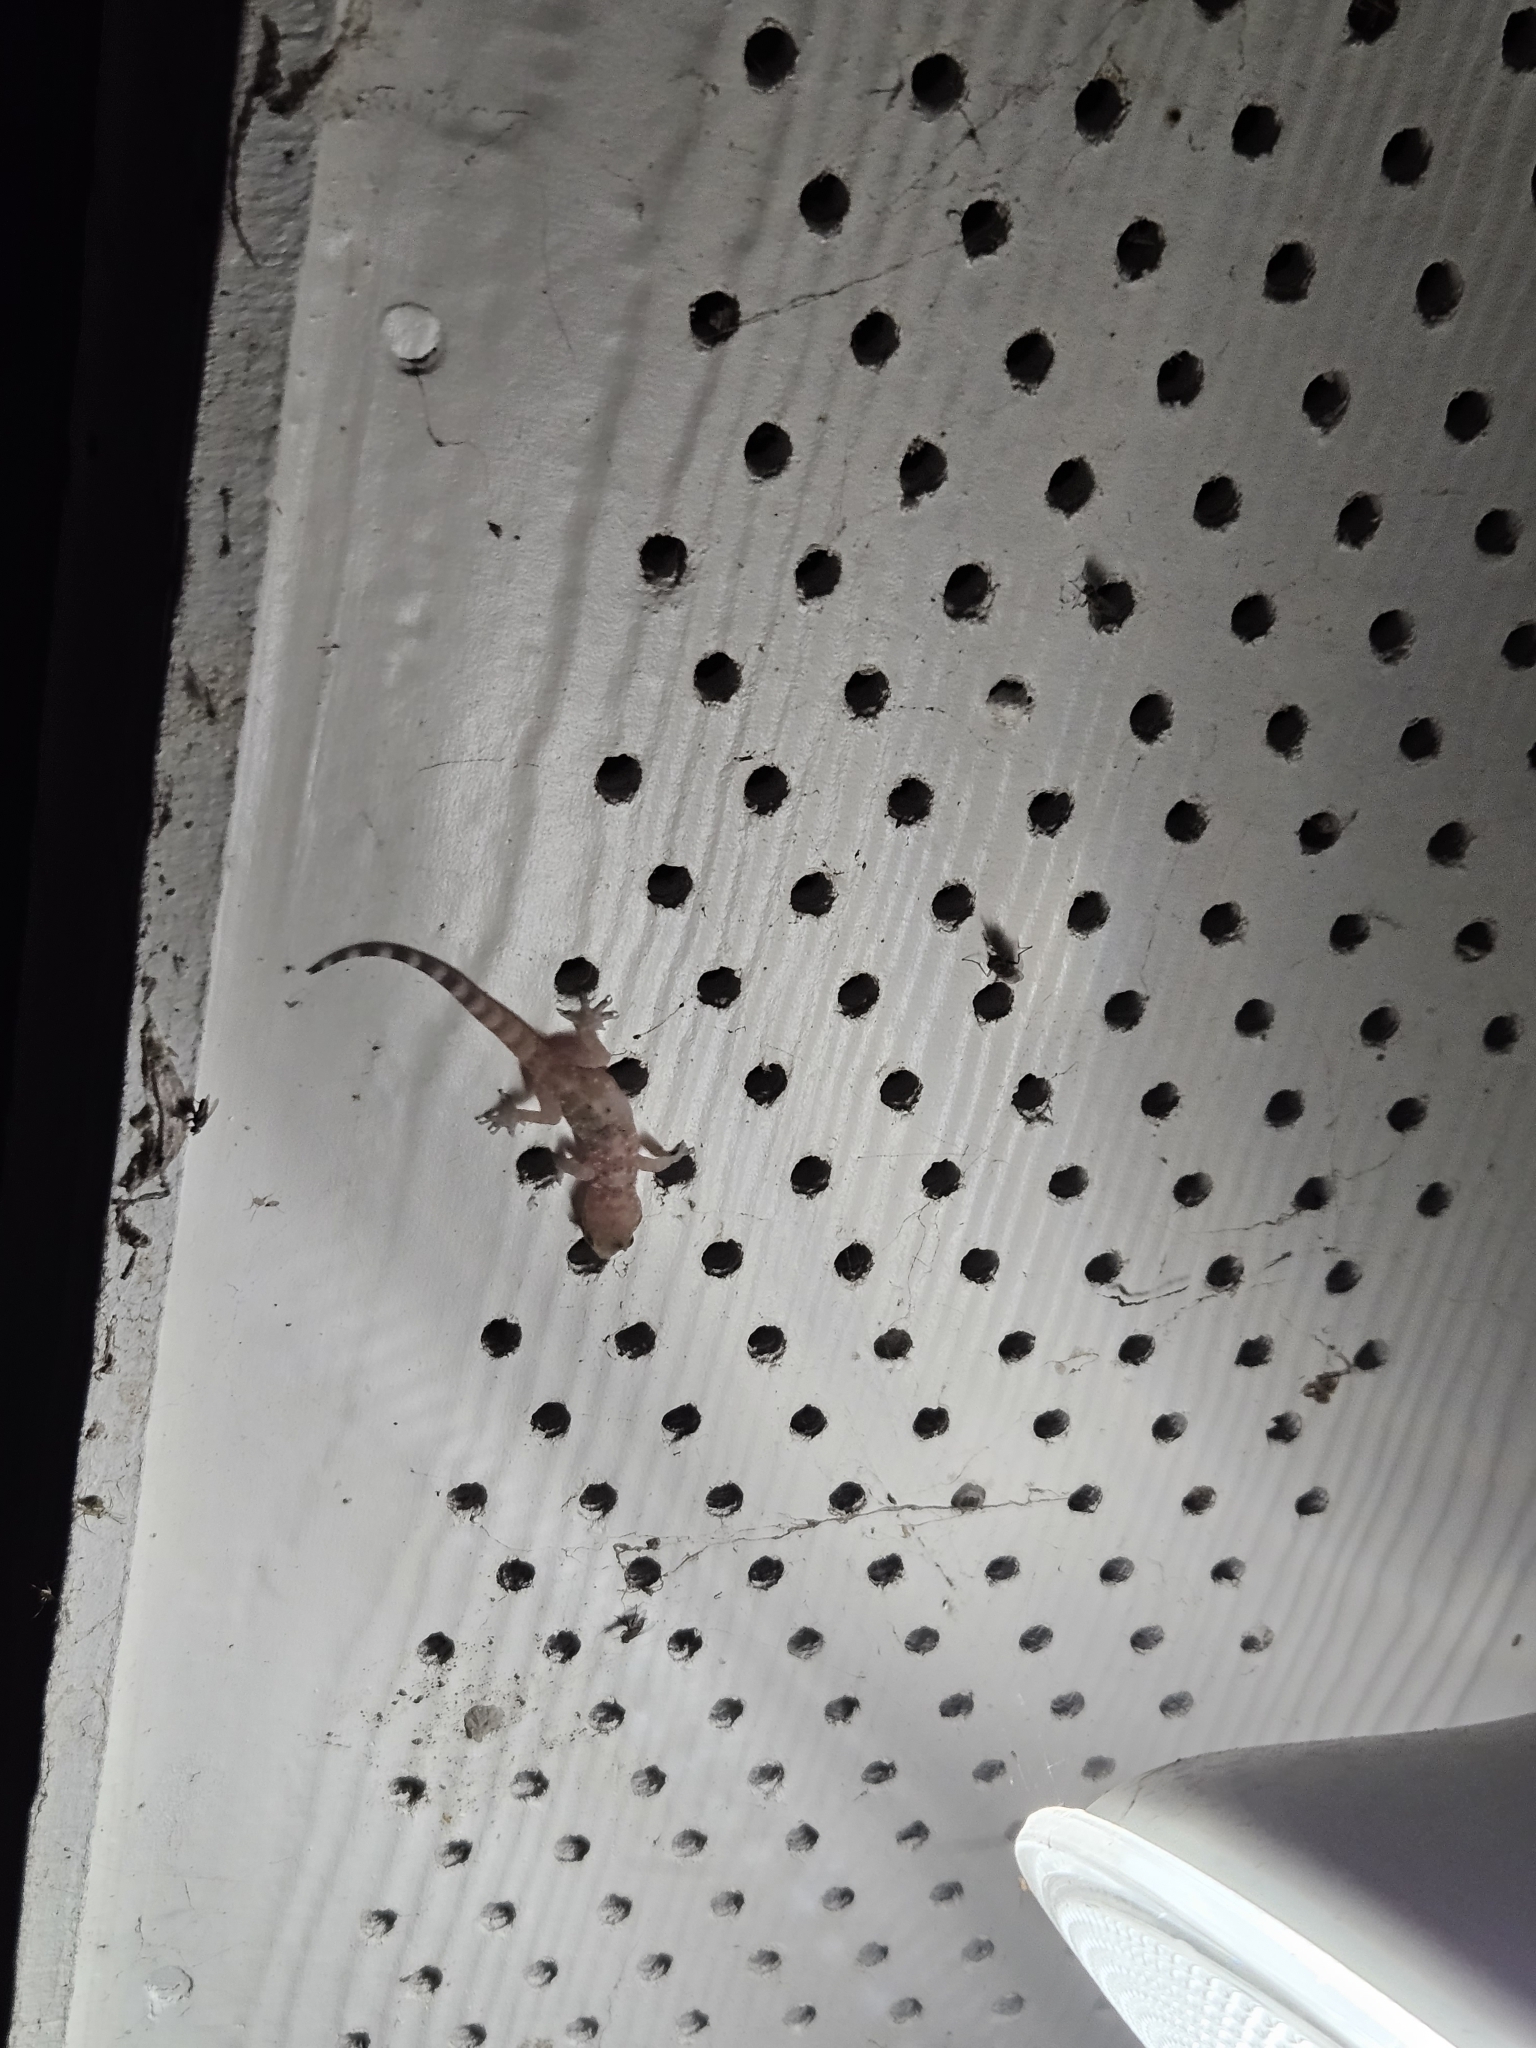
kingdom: Animalia
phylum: Chordata
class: Squamata
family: Gekkonidae
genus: Hemidactylus
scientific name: Hemidactylus turcicus
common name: Turkish gecko
